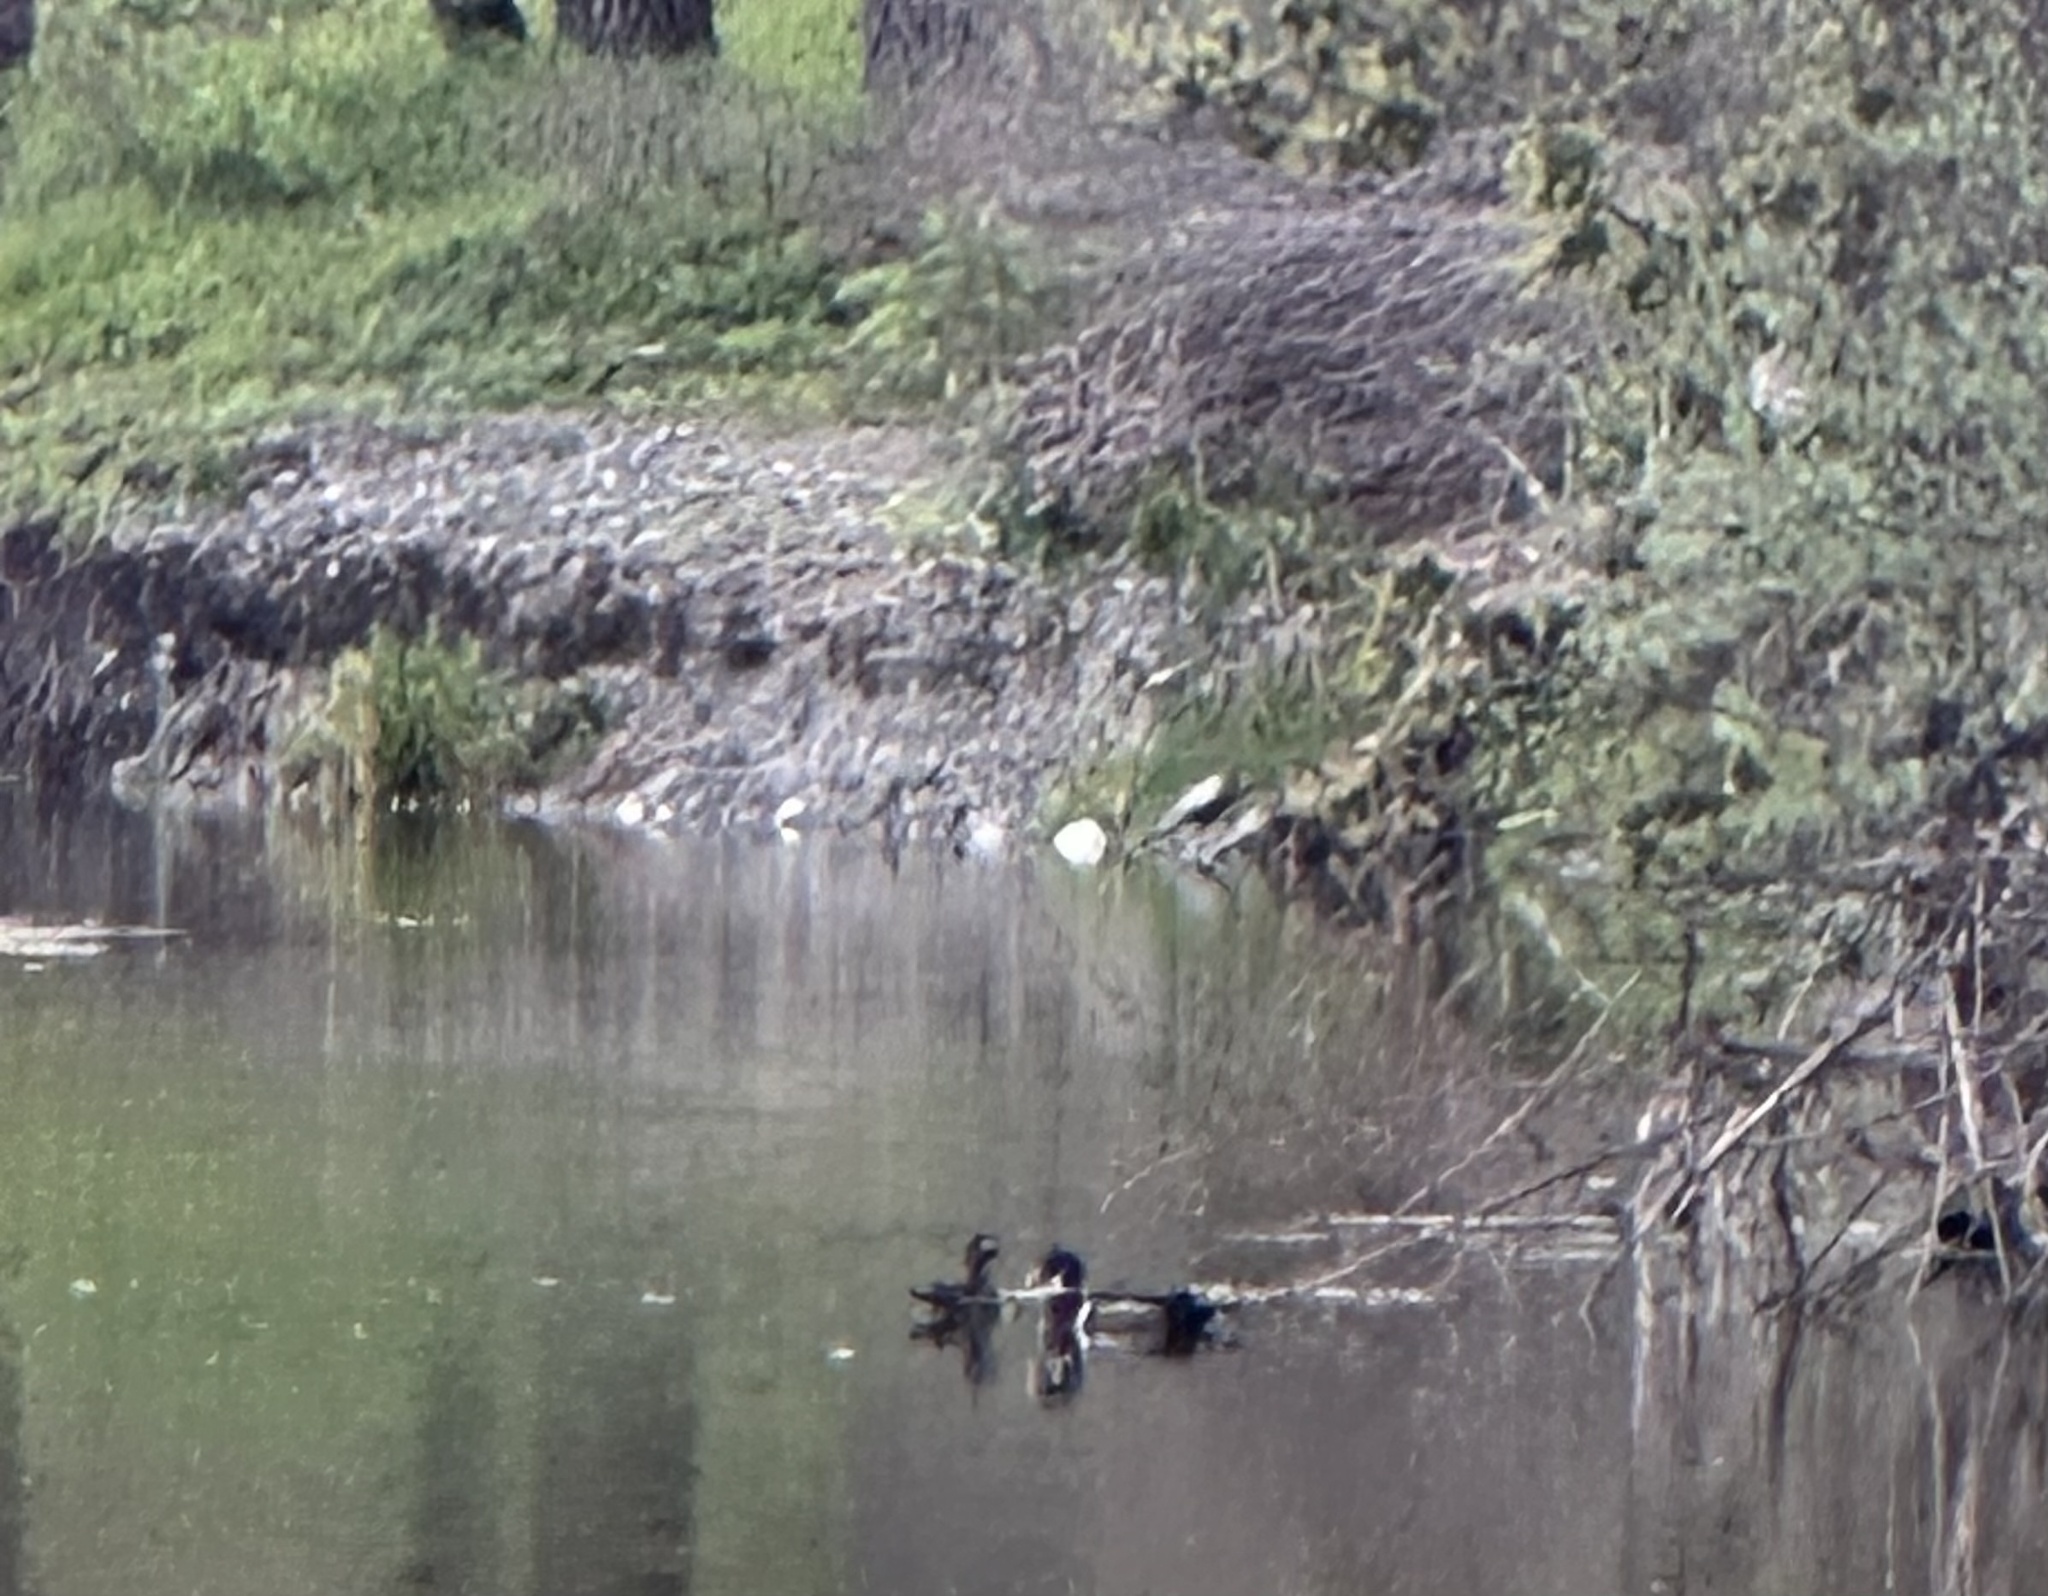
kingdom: Animalia
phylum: Chordata
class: Aves
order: Anseriformes
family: Anatidae
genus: Aix
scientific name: Aix sponsa
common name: Wood duck
